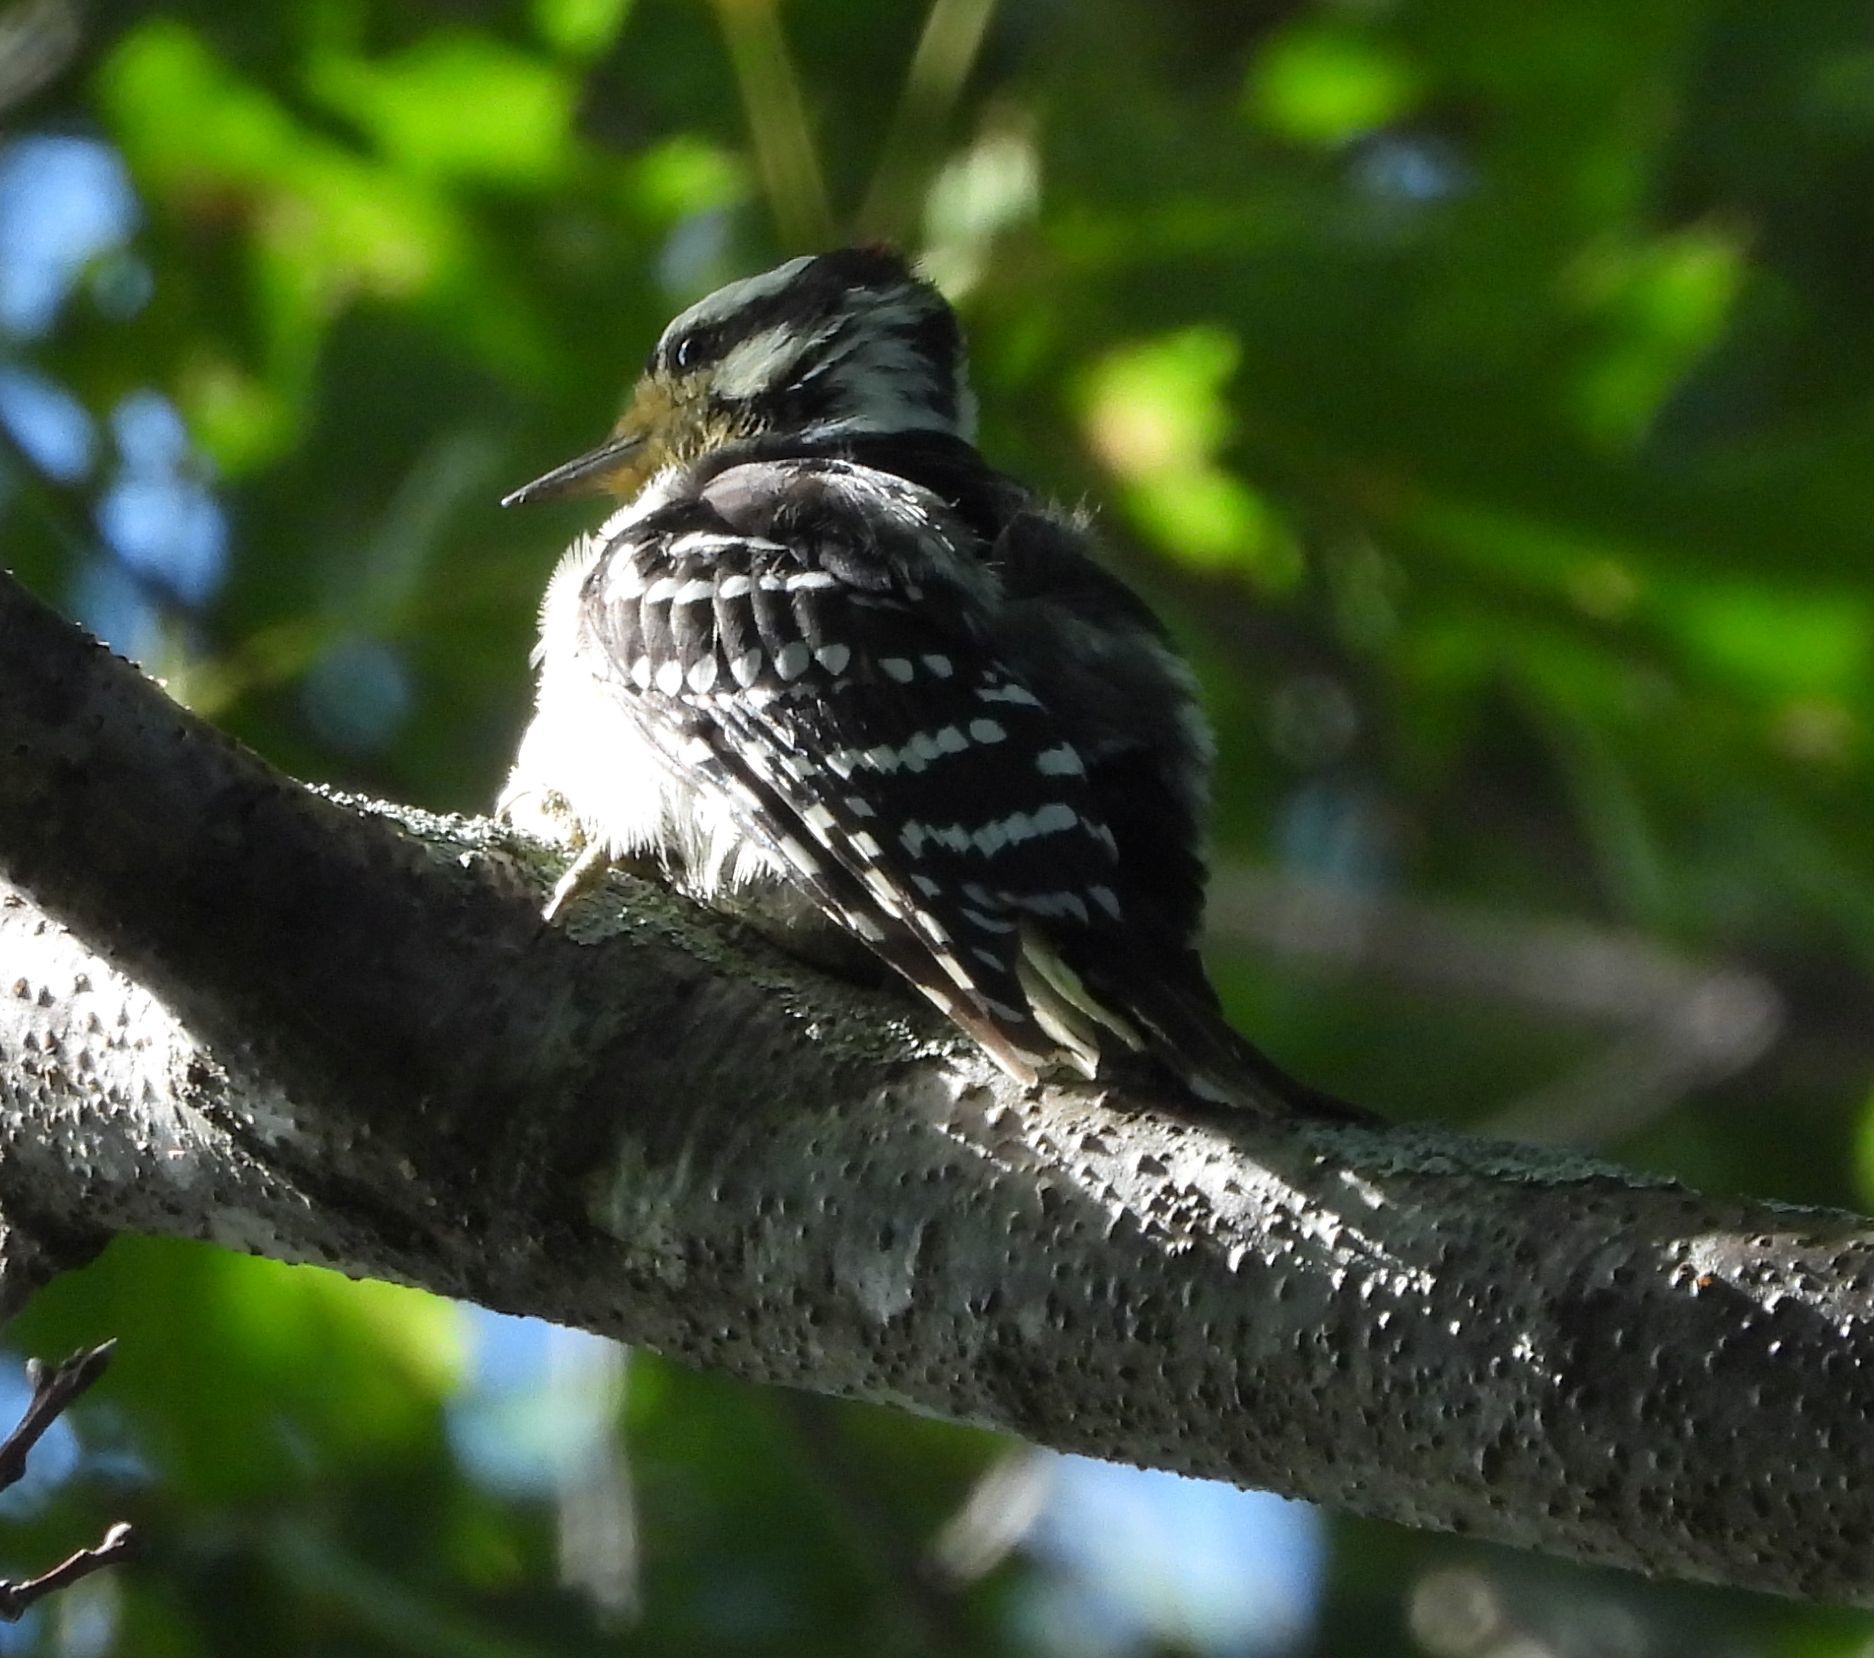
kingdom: Animalia
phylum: Chordata
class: Aves
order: Piciformes
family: Picidae
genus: Dryobates
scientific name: Dryobates pubescens
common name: Downy woodpecker
